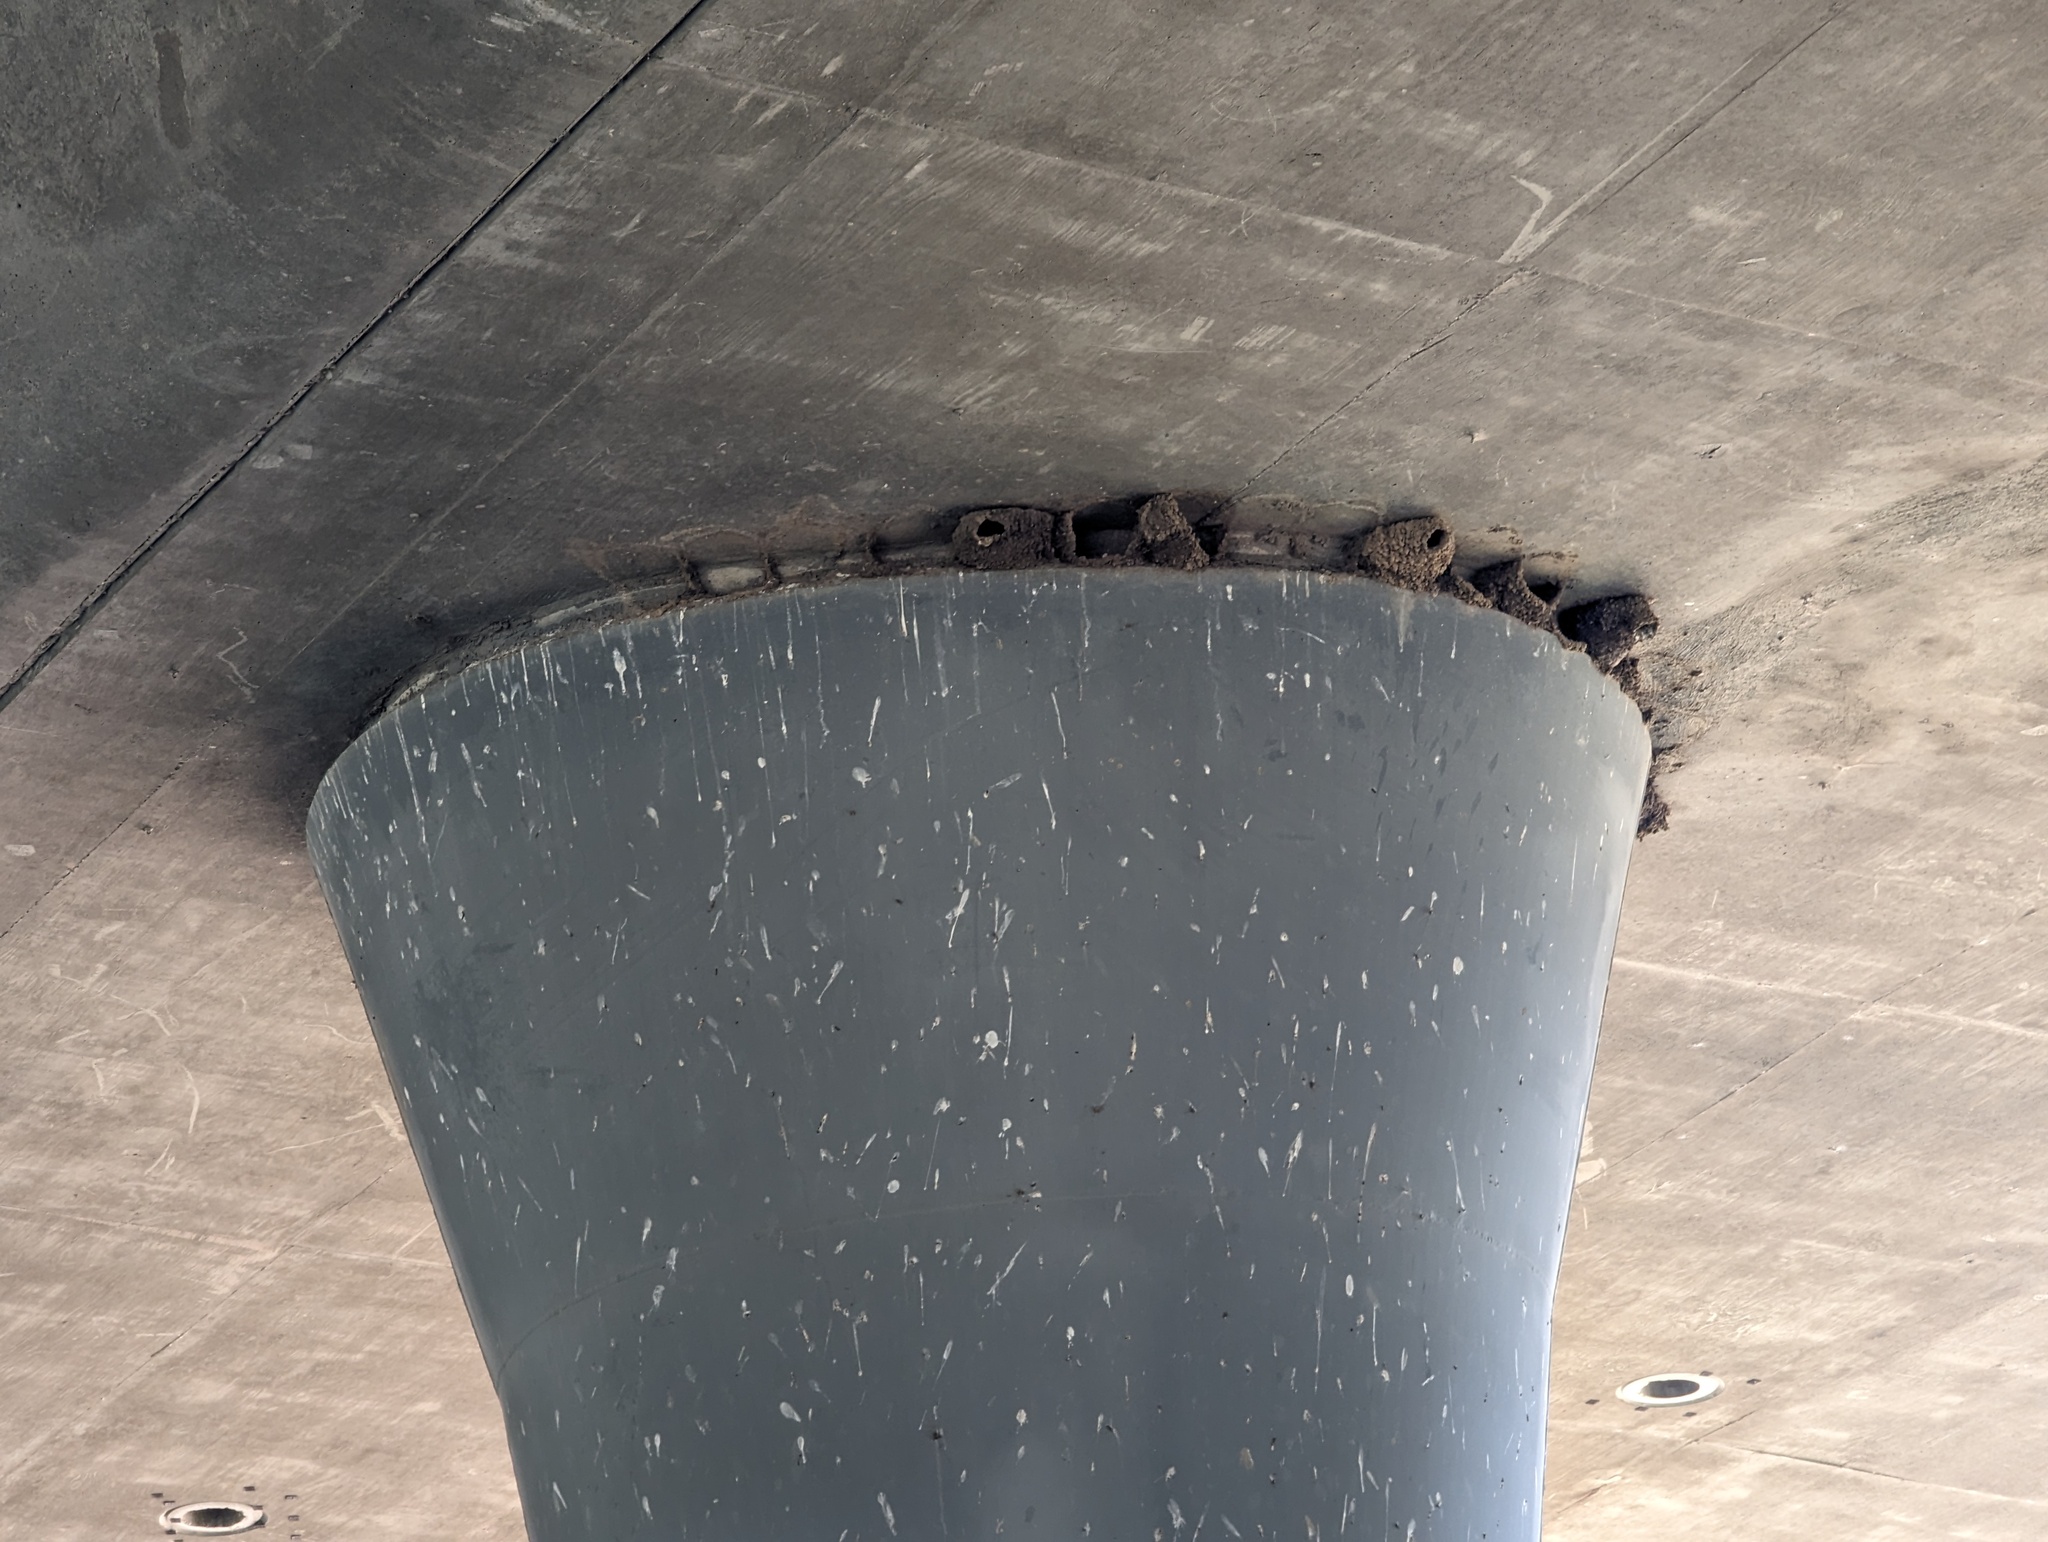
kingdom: Animalia
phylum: Chordata
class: Aves
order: Passeriformes
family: Hirundinidae
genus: Petrochelidon
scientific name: Petrochelidon pyrrhonota
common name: American cliff swallow
